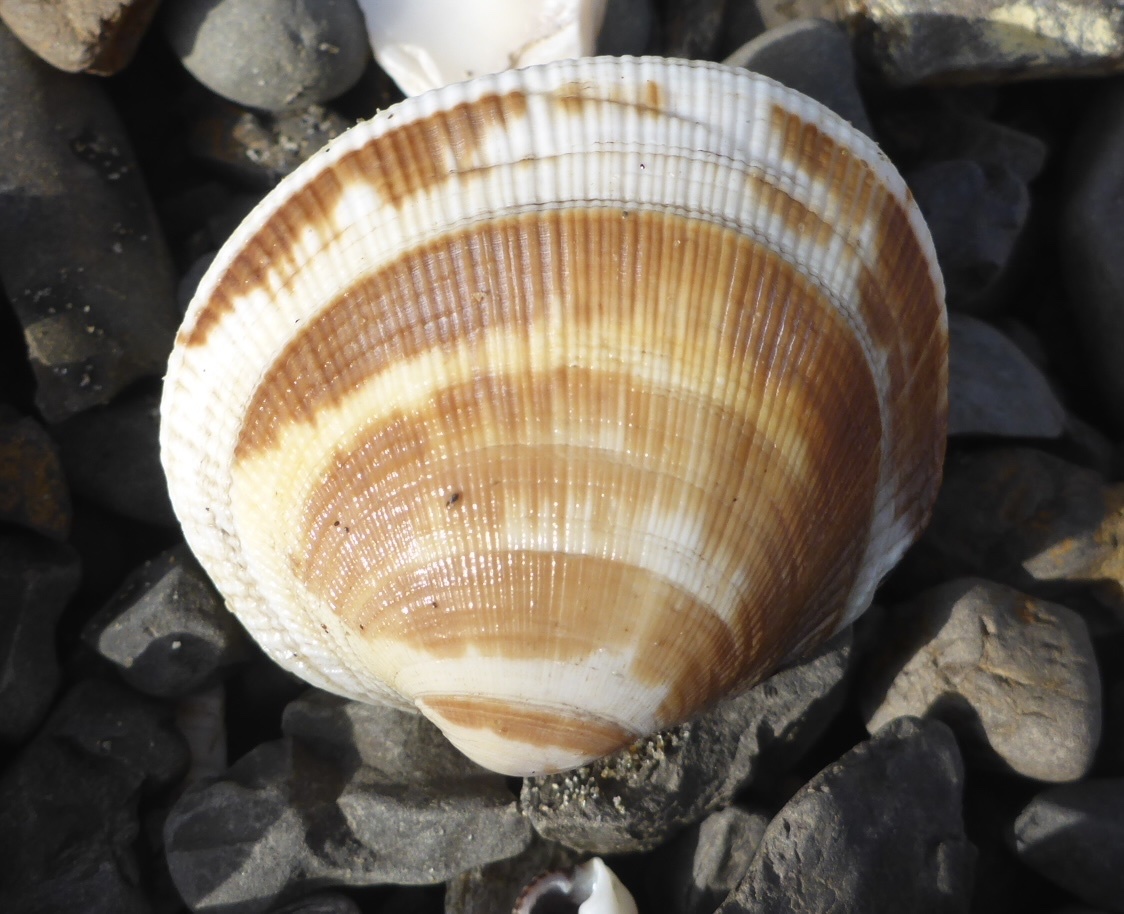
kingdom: Animalia
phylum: Mollusca
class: Bivalvia
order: Venerida
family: Veneridae
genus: Leukoma
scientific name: Leukoma staminea
